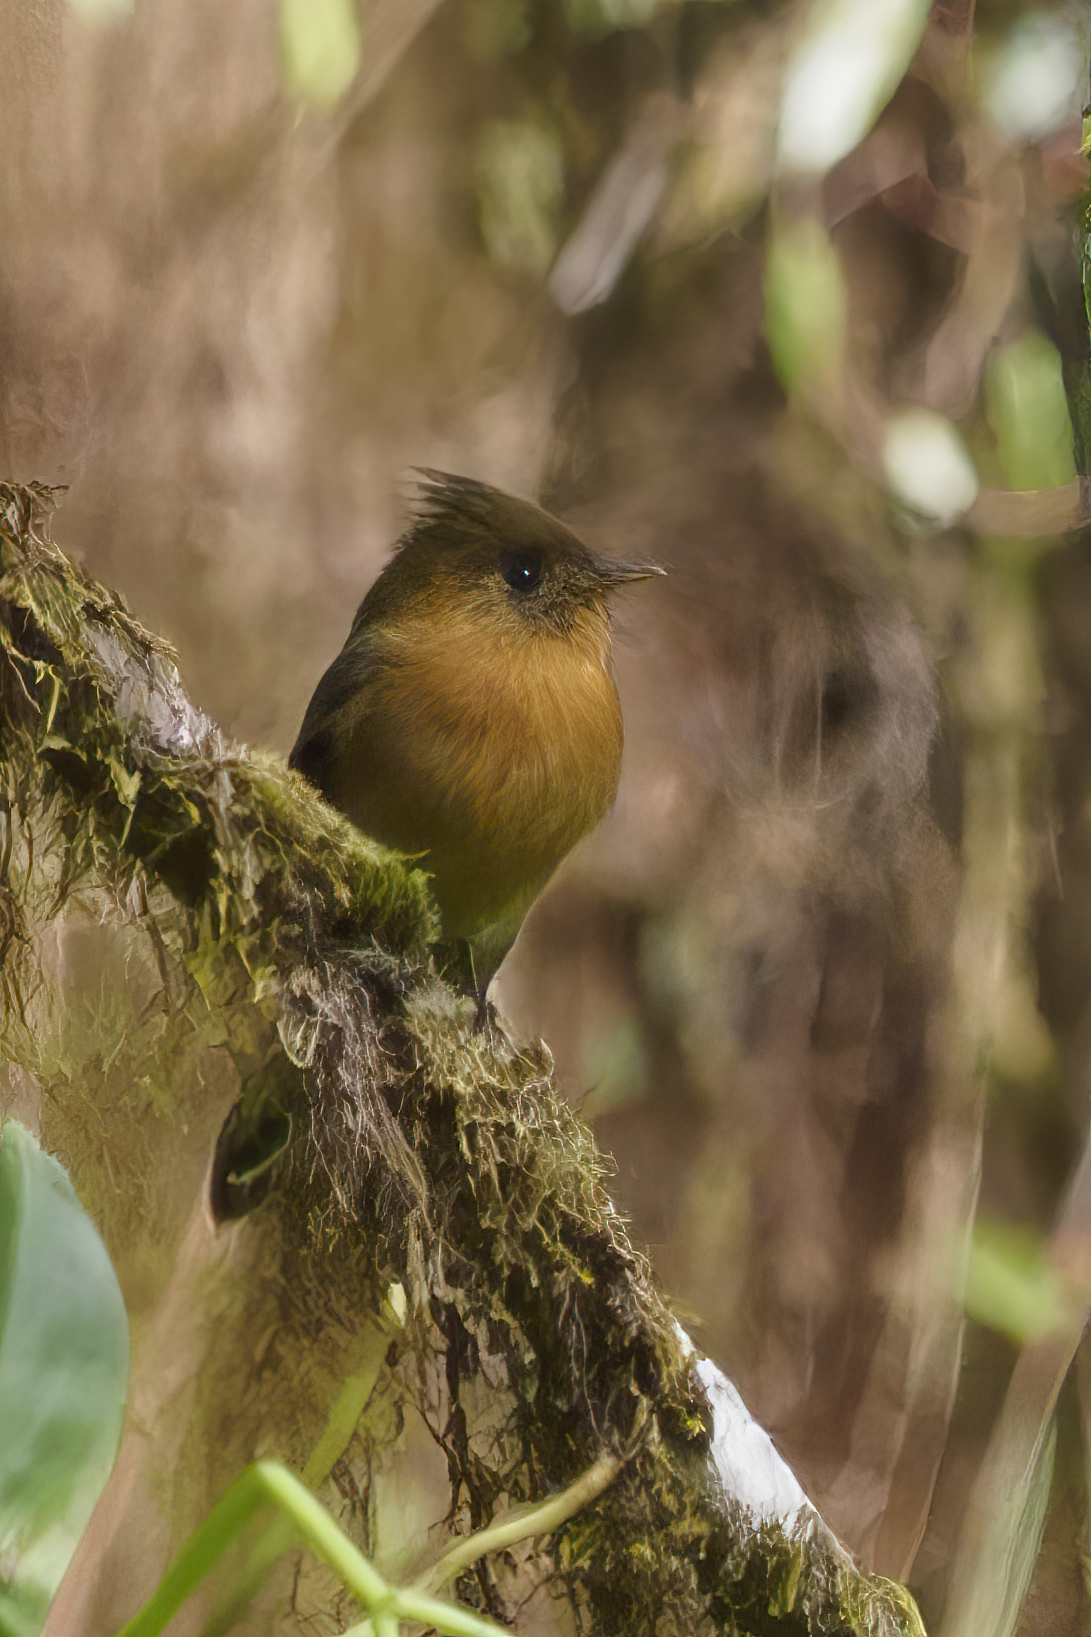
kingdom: Animalia
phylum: Chordata
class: Aves
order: Passeriformes
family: Tyrannidae
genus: Mitrephanes
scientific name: Mitrephanes phaeocercus
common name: Northern tufted flycatcher
